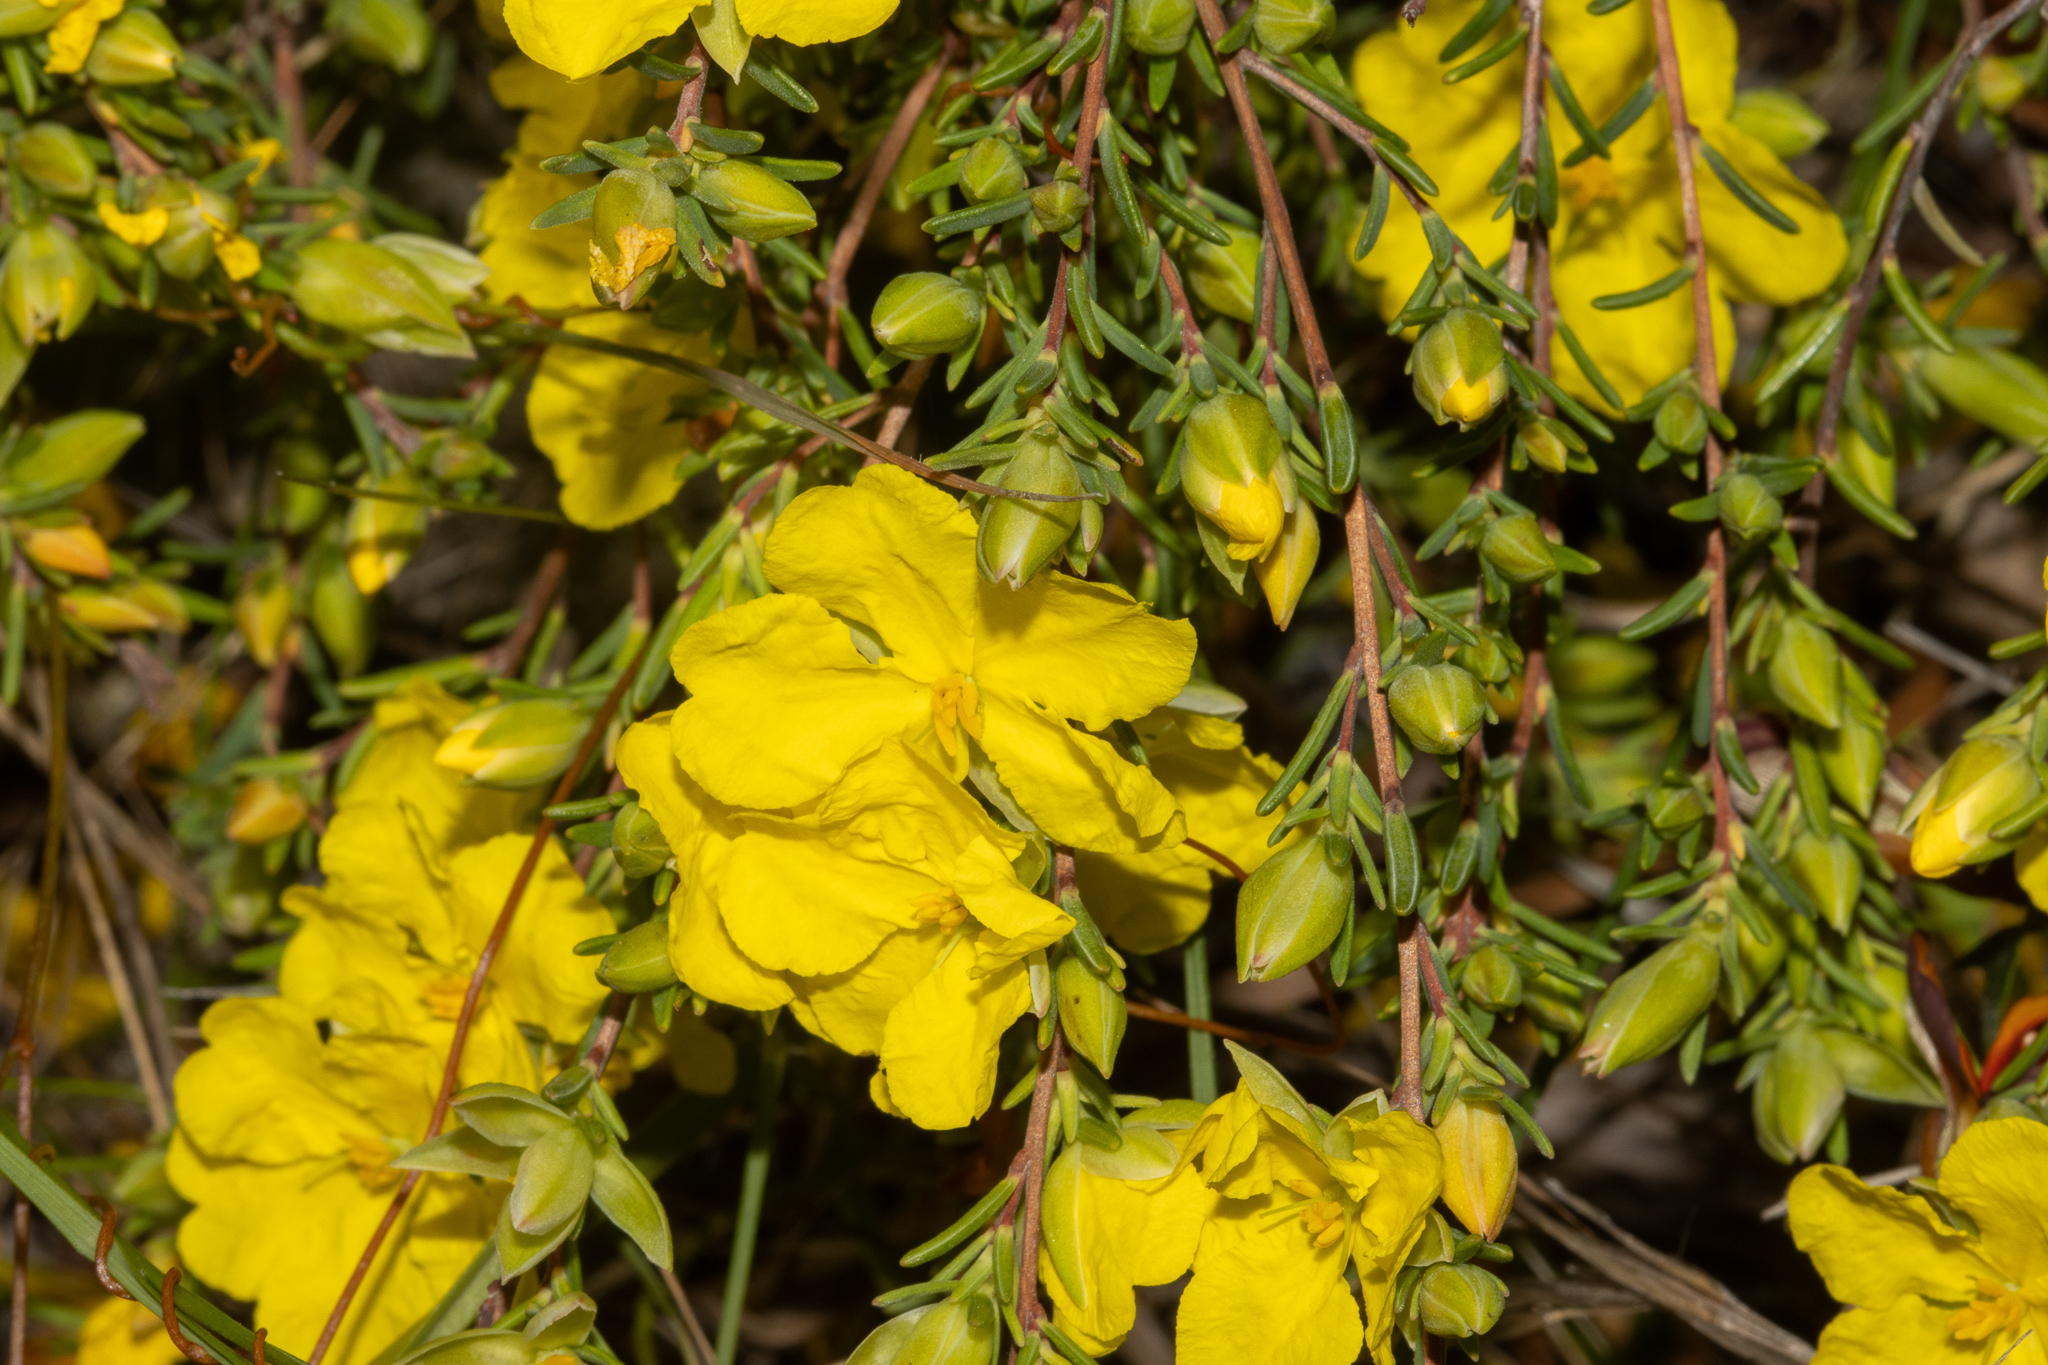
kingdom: Plantae
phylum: Tracheophyta
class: Magnoliopsida
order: Dilleniales
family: Dilleniaceae
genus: Hibbertia
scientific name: Hibbertia devitata
